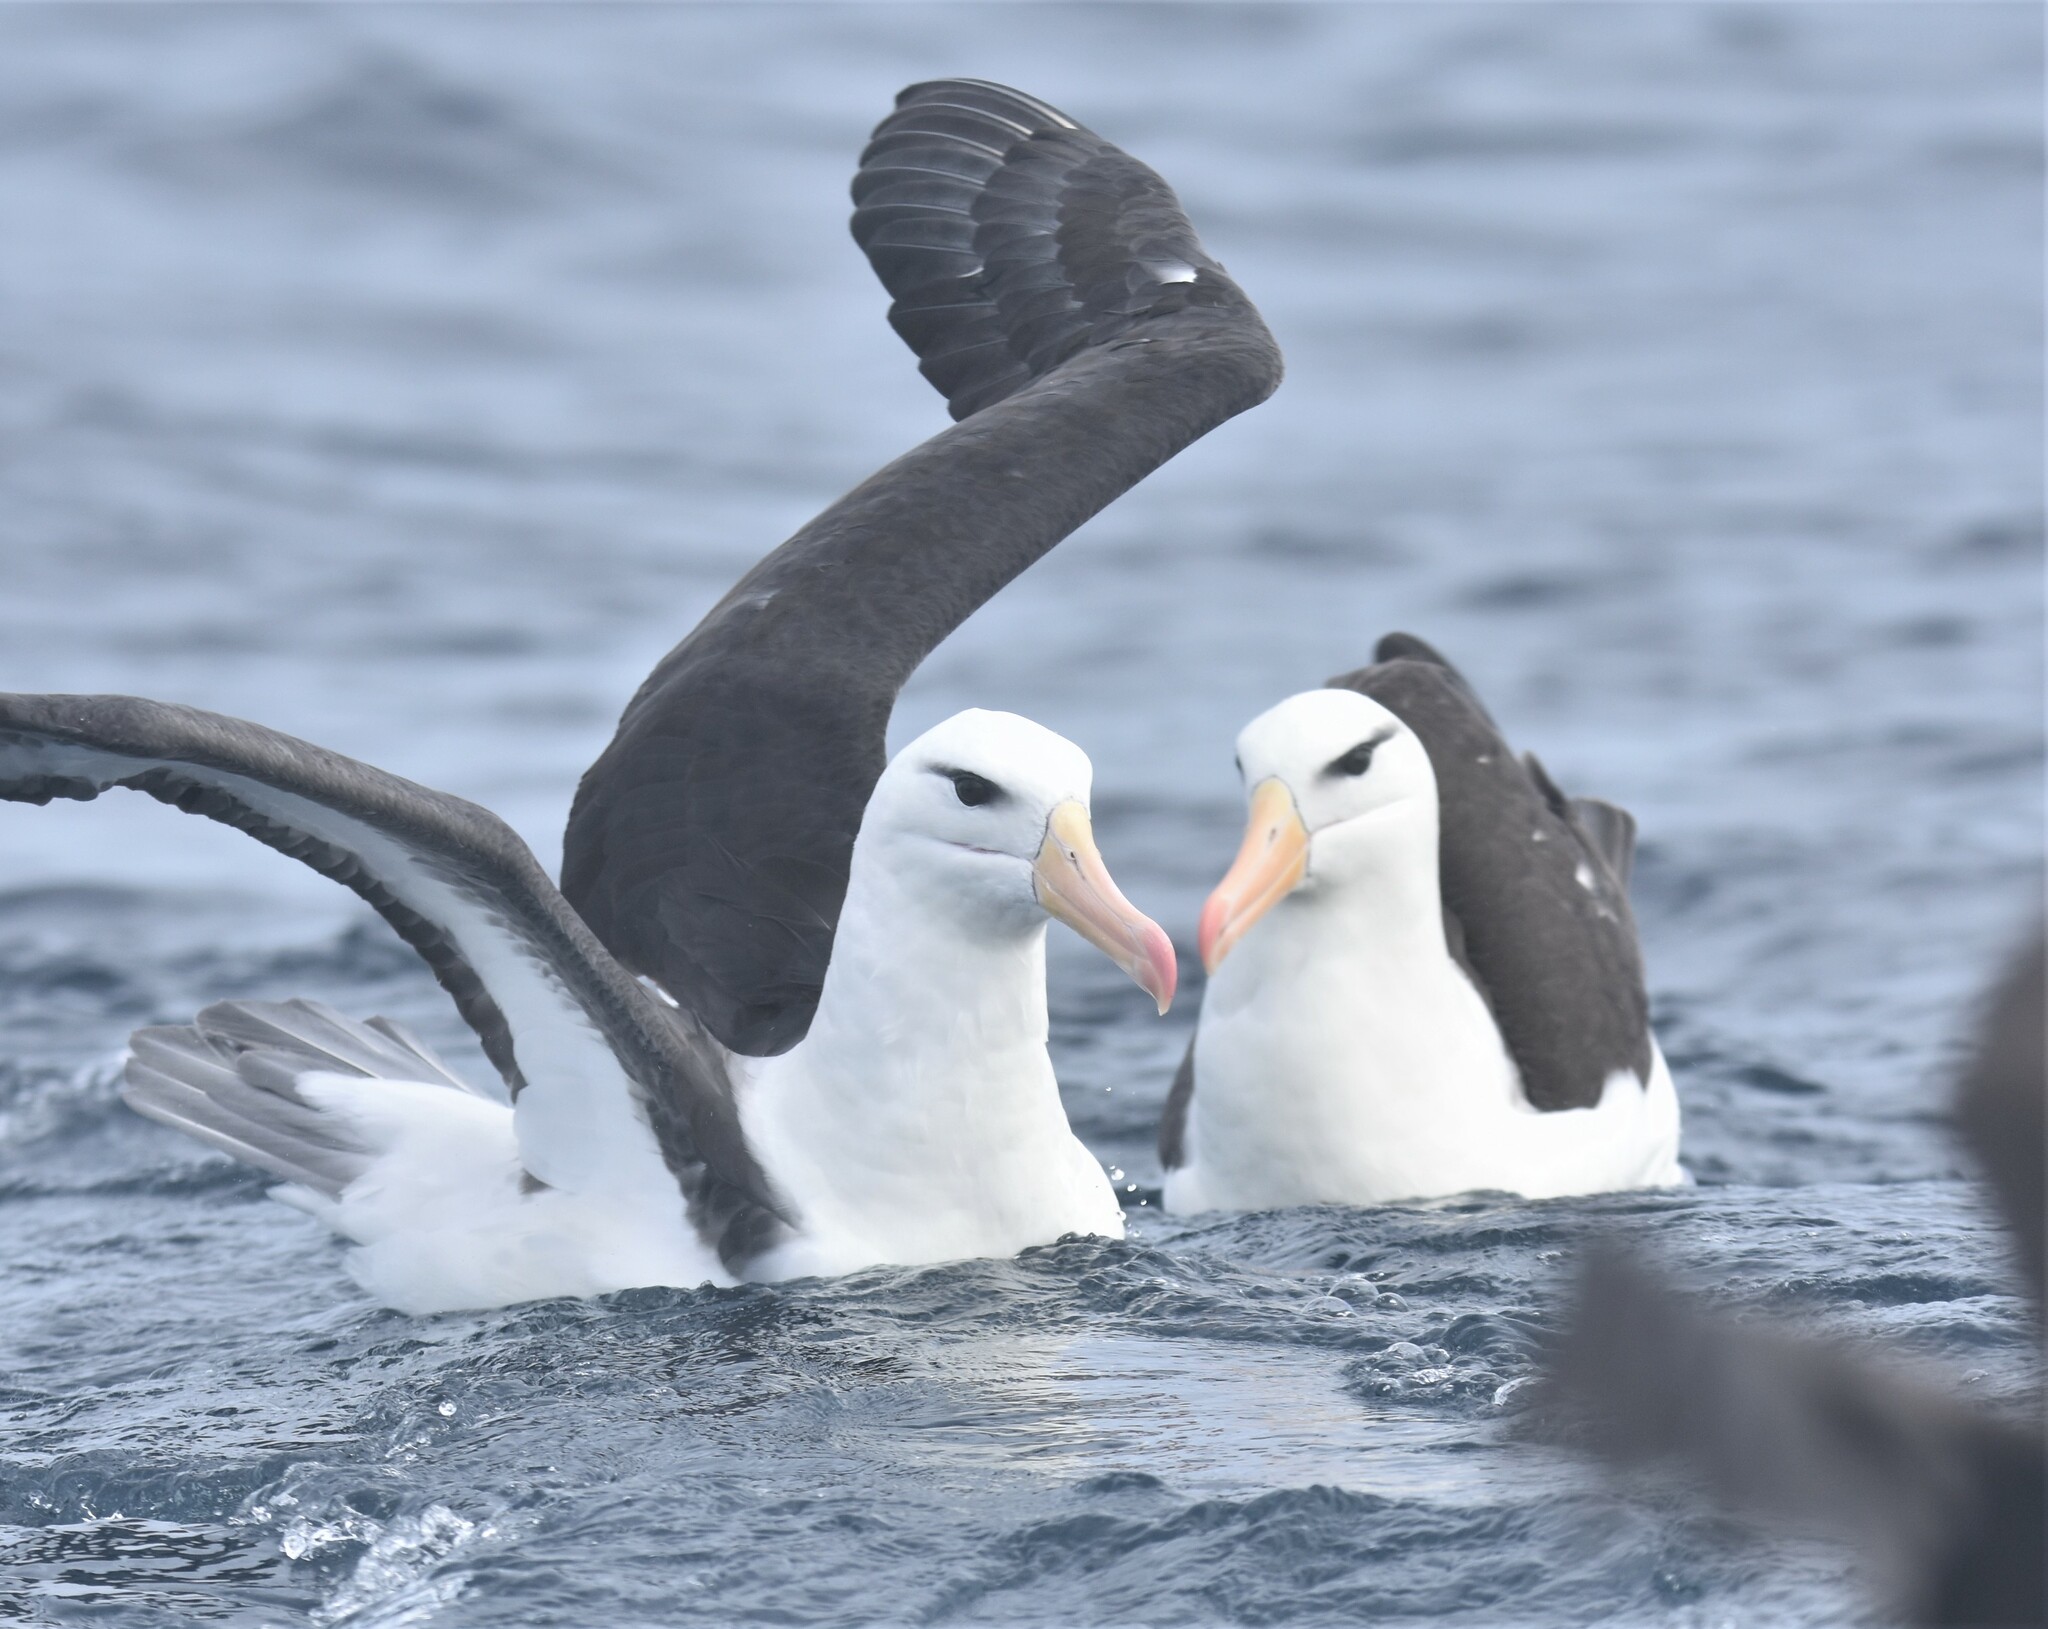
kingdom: Animalia
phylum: Chordata
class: Aves
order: Procellariiformes
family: Diomedeidae
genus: Thalassarche
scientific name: Thalassarche melanophris
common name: Black-browed albatross
